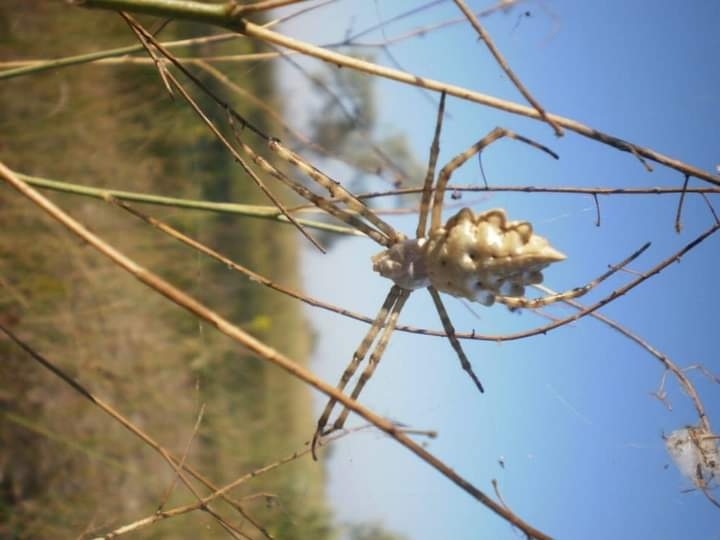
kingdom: Animalia
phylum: Arthropoda
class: Arachnida
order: Araneae
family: Araneidae
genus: Argiope
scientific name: Argiope lobata
